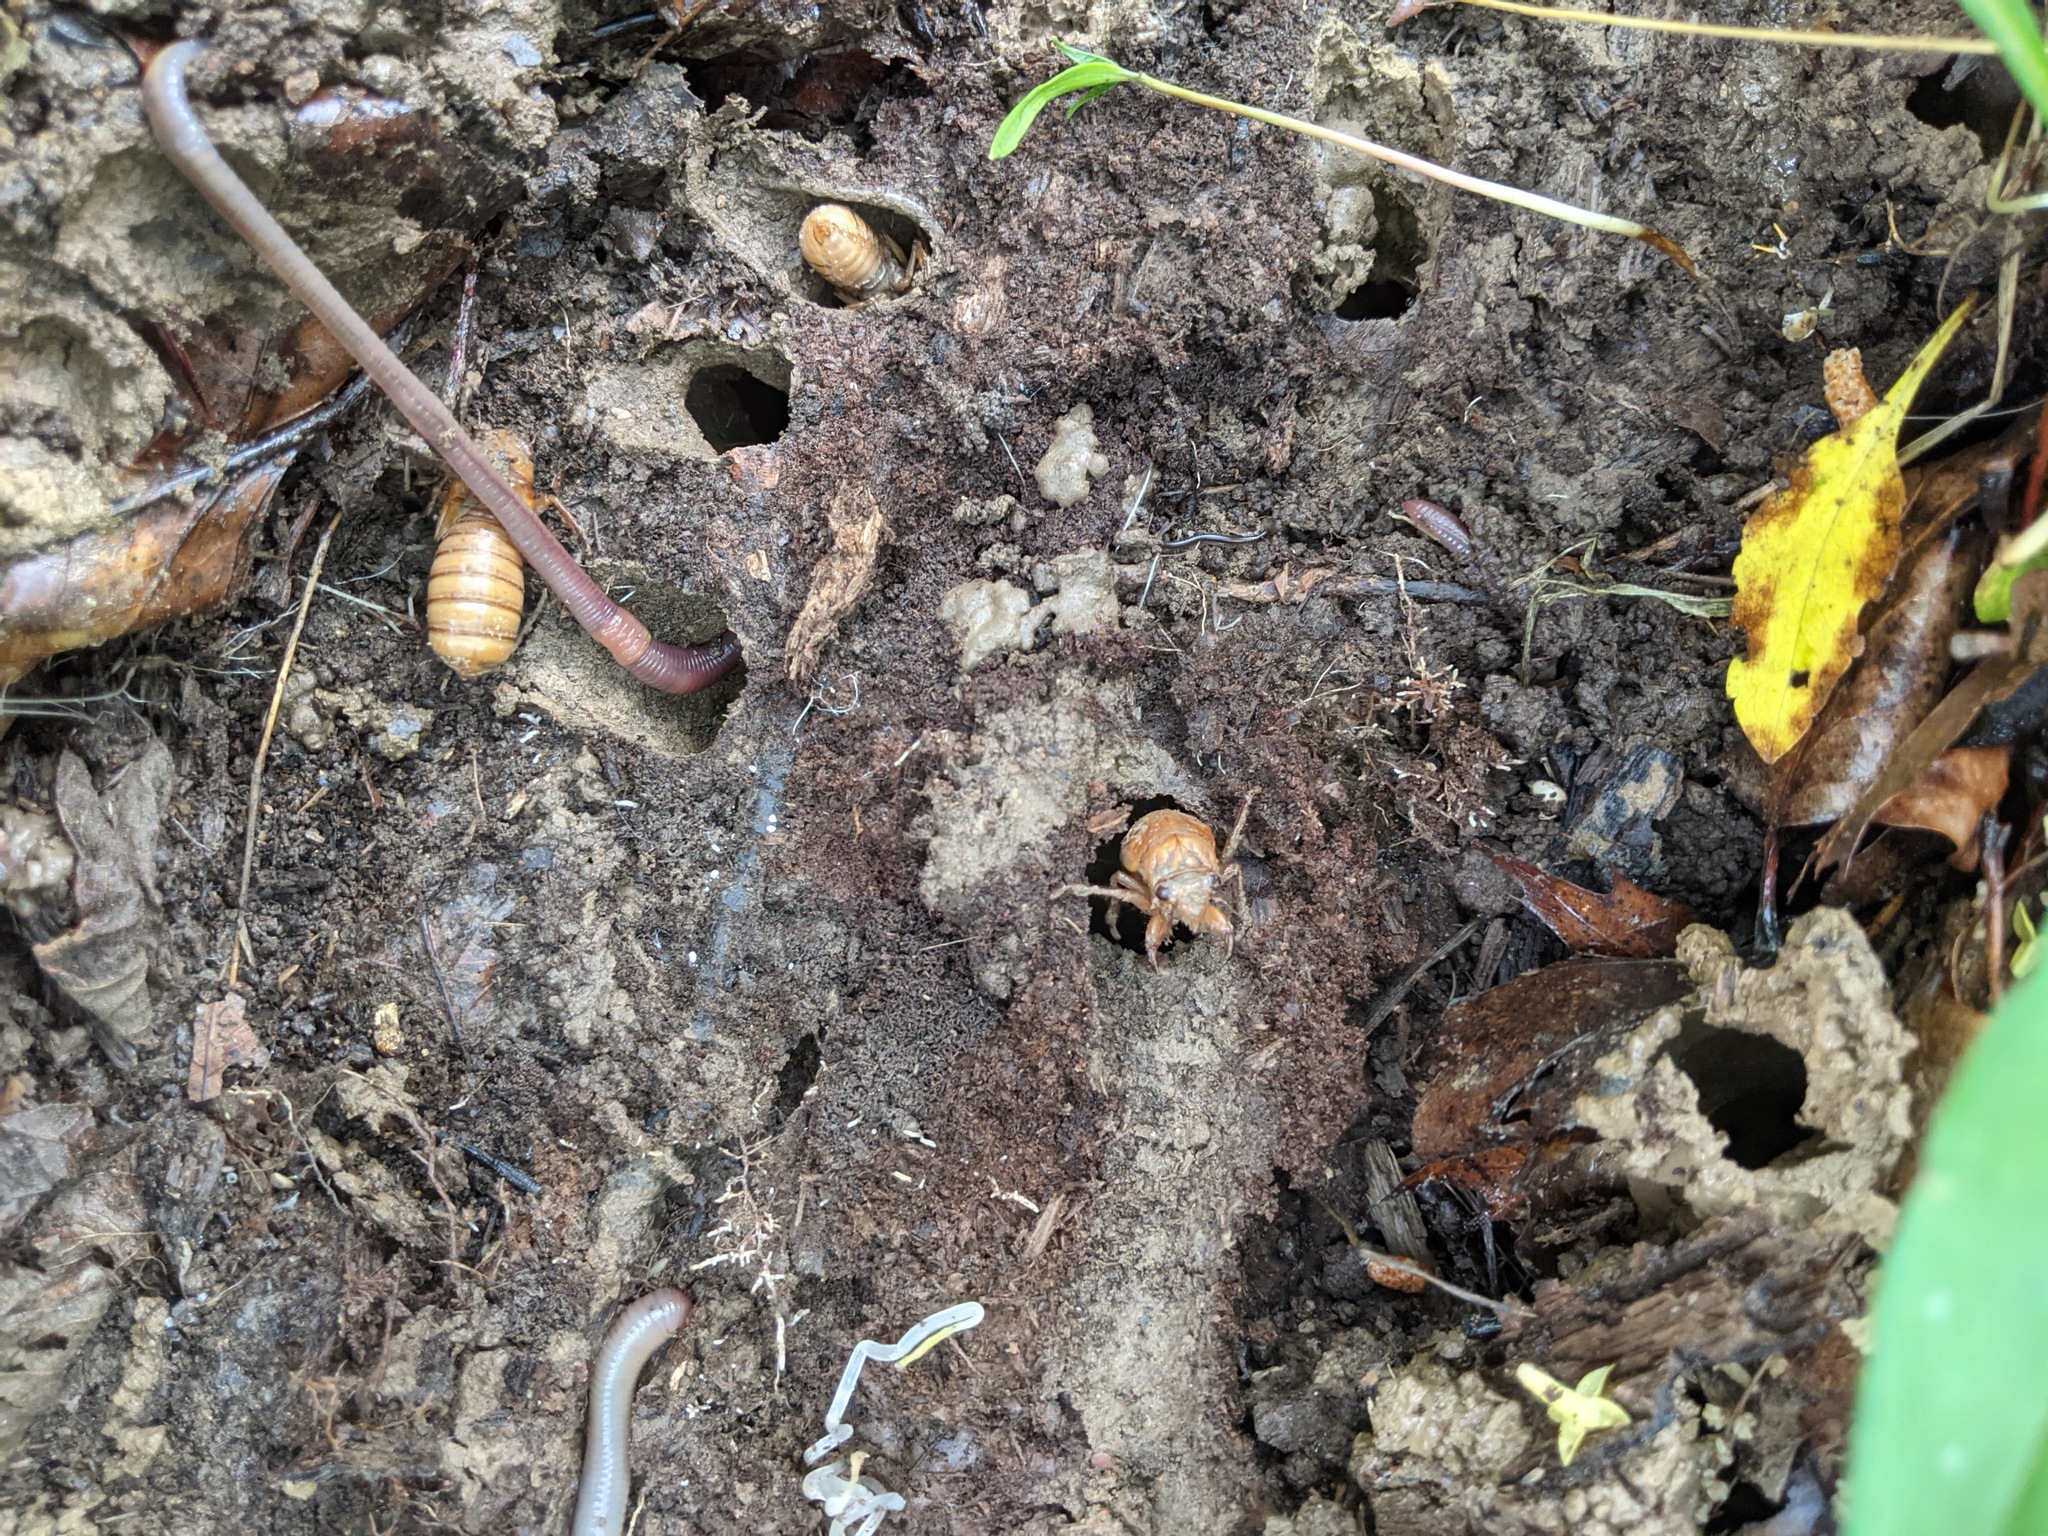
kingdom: Animalia
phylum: Arthropoda
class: Insecta
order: Hemiptera
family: Cicadidae
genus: Magicicada
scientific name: Magicicada
